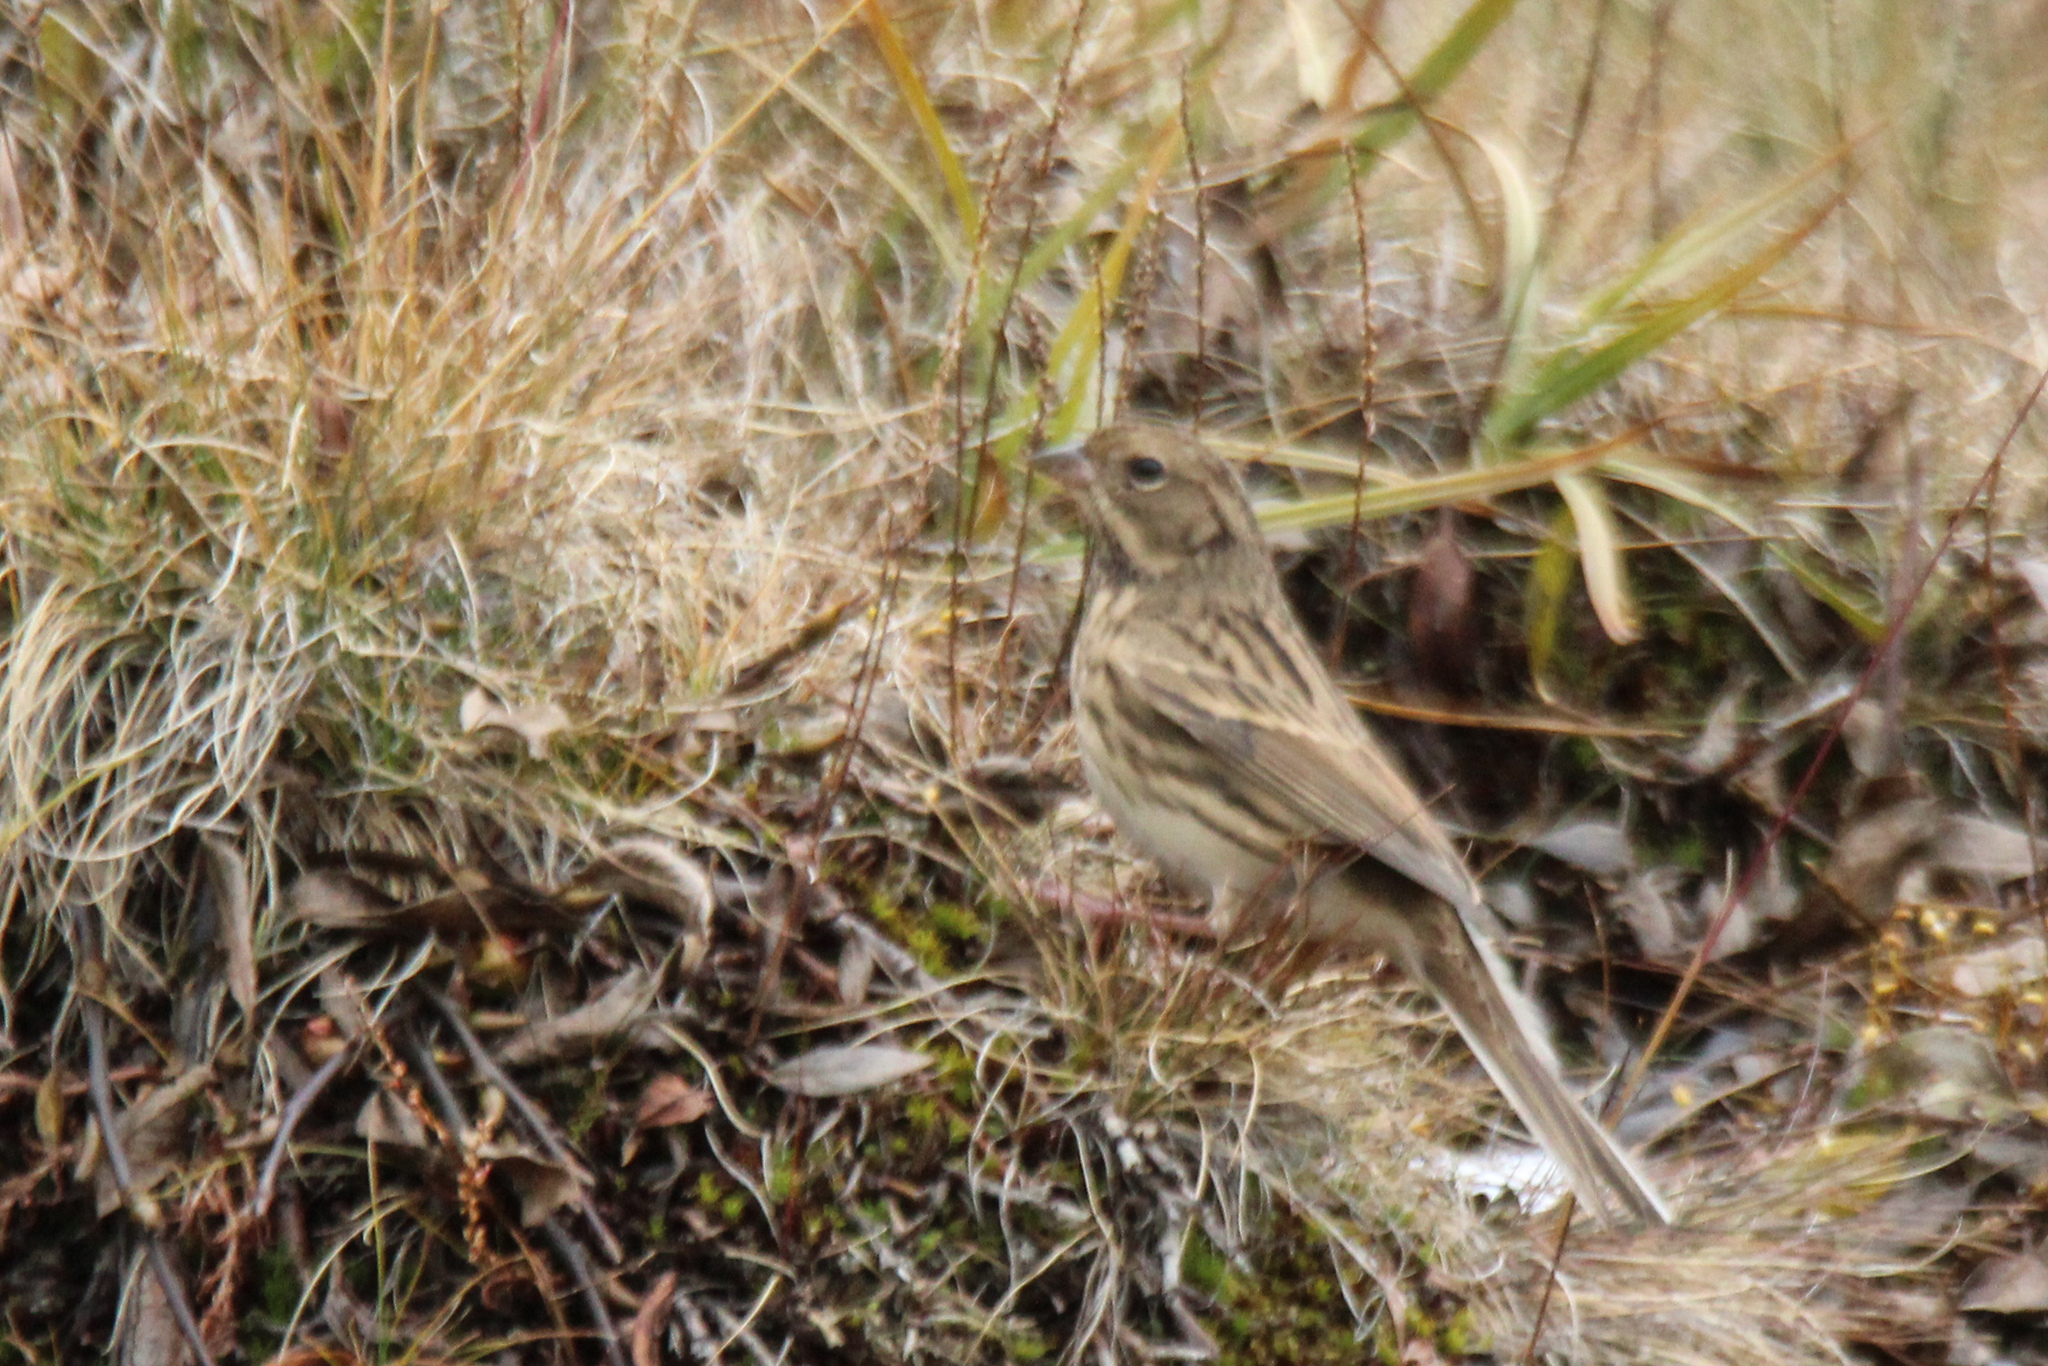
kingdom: Animalia
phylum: Chordata
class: Aves
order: Passeriformes
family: Emberizidae
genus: Emberiza
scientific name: Emberiza spodocephala
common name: Black-faced bunting
